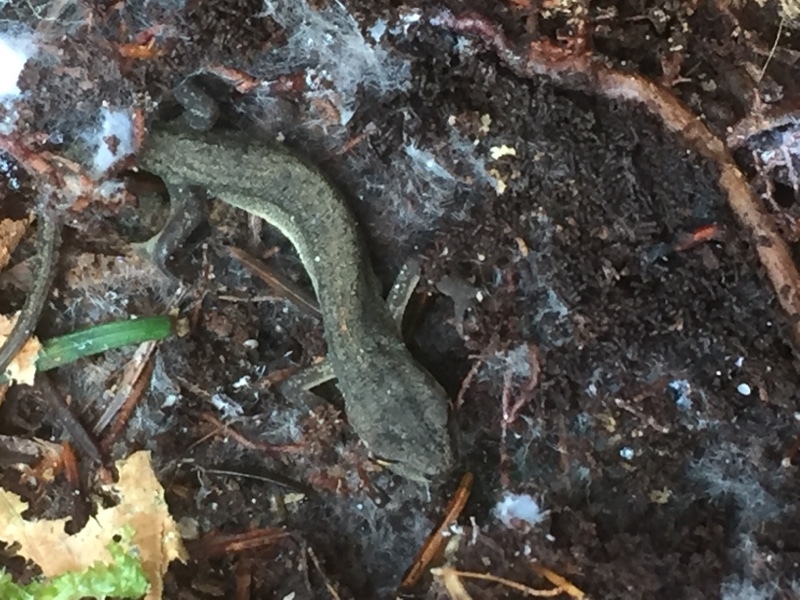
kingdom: Animalia
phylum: Chordata
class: Amphibia
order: Caudata
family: Salamandridae
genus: Lissotriton
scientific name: Lissotriton vulgaris
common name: Smooth newt
